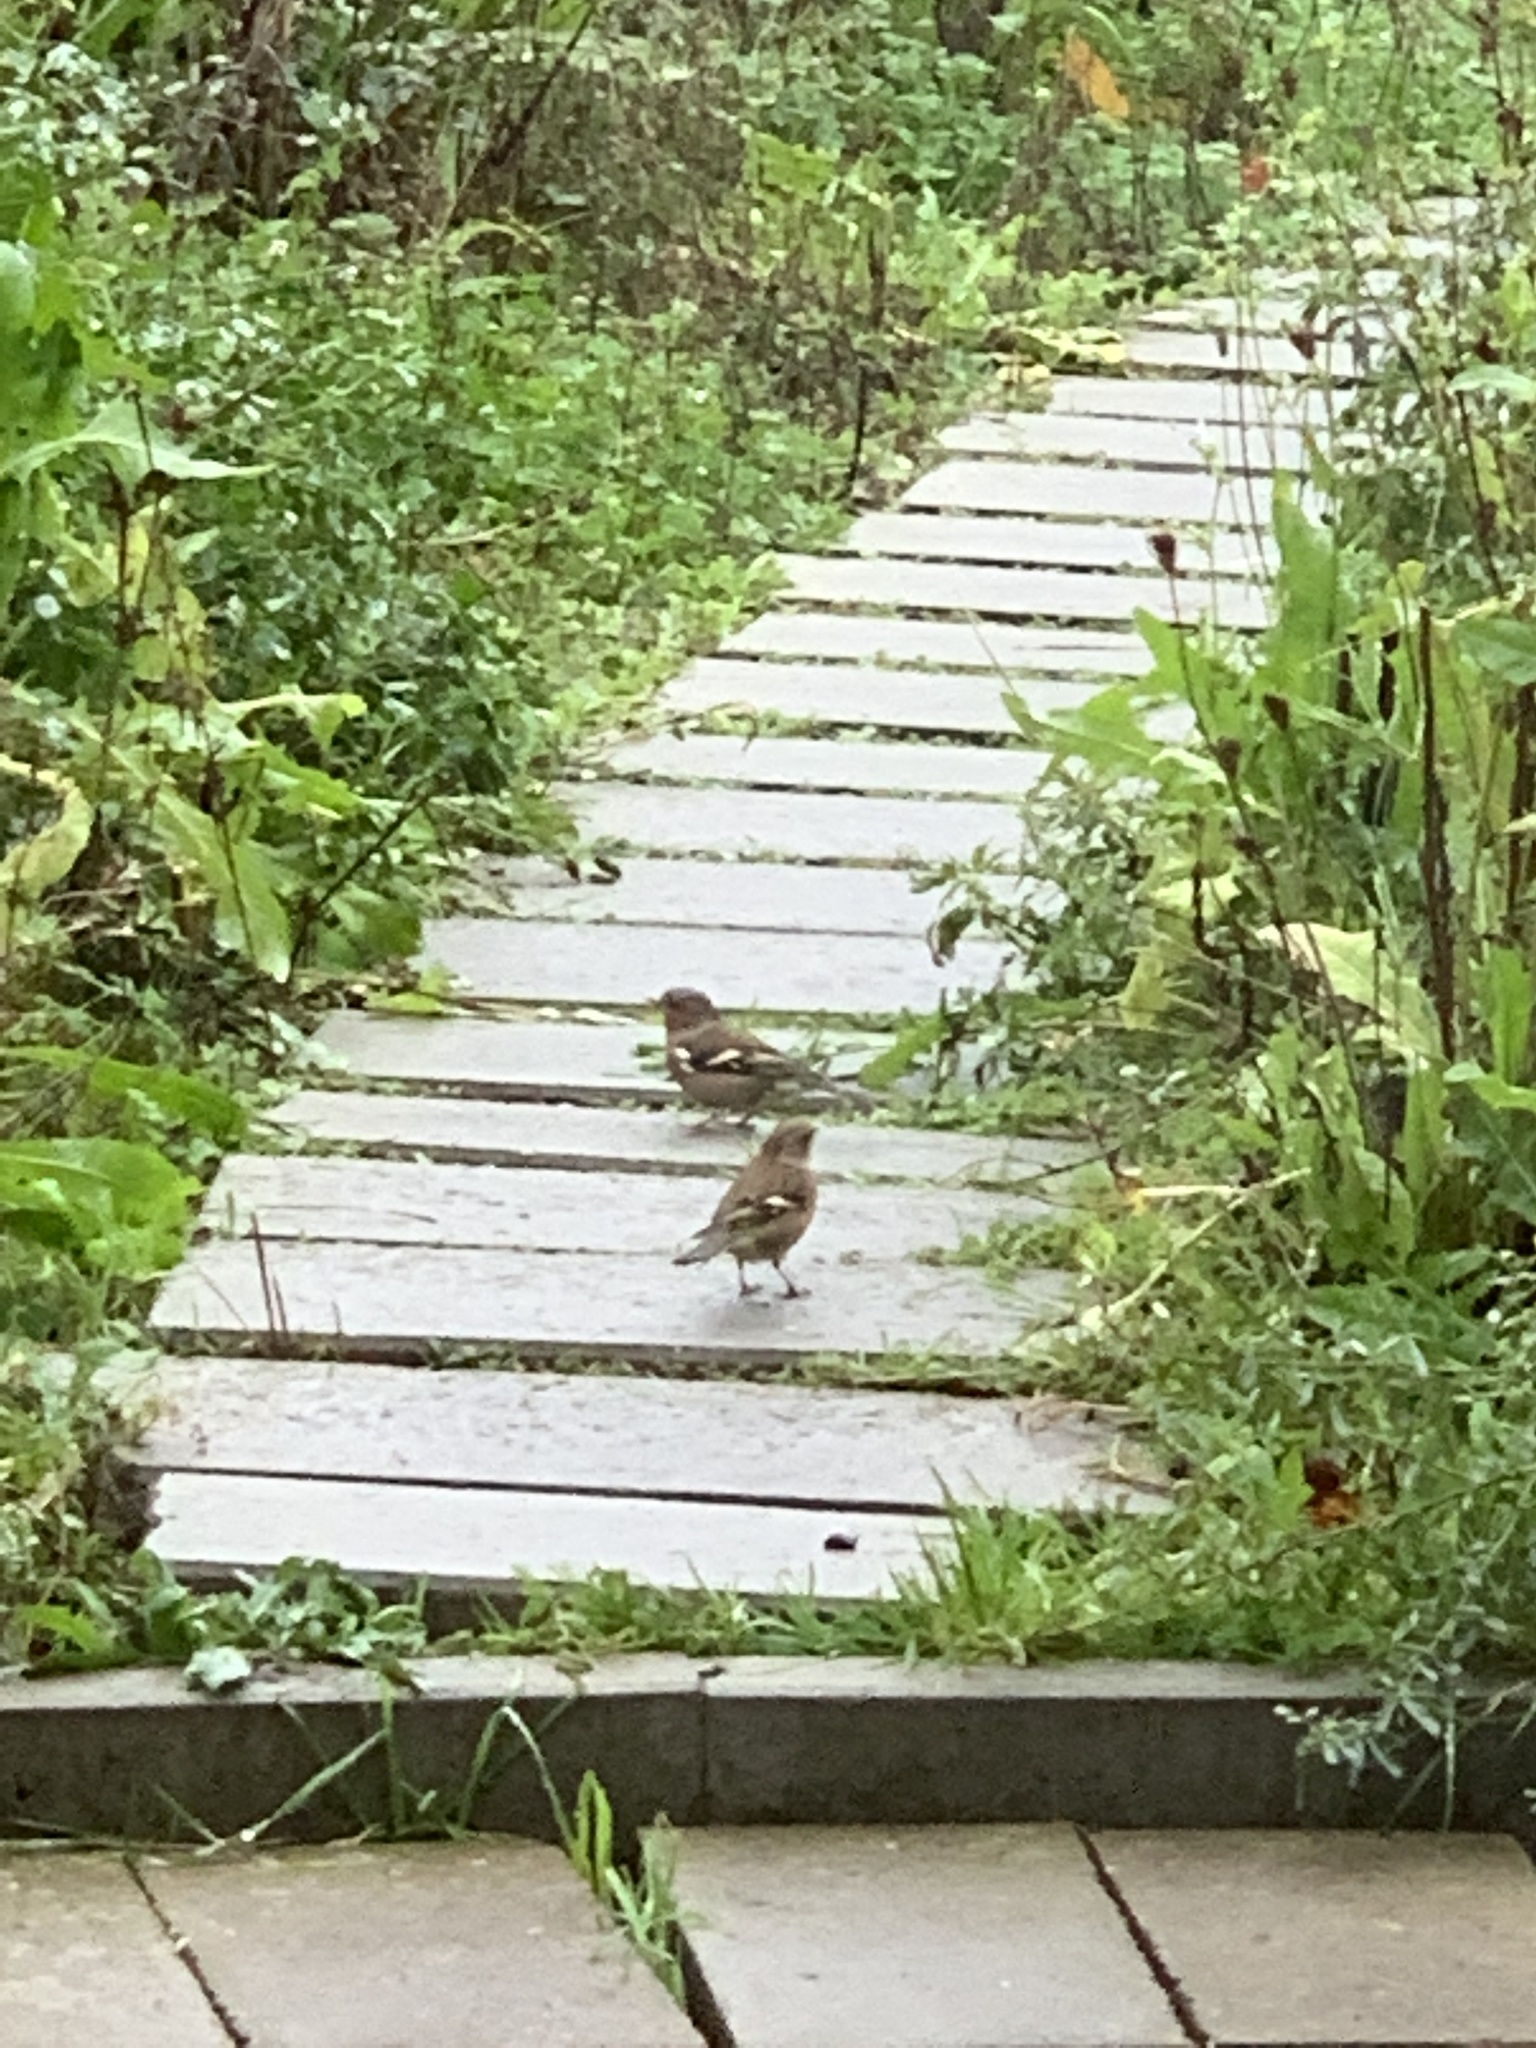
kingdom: Animalia
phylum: Chordata
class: Aves
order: Passeriformes
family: Fringillidae
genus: Fringilla
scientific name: Fringilla coelebs
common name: Common chaffinch
